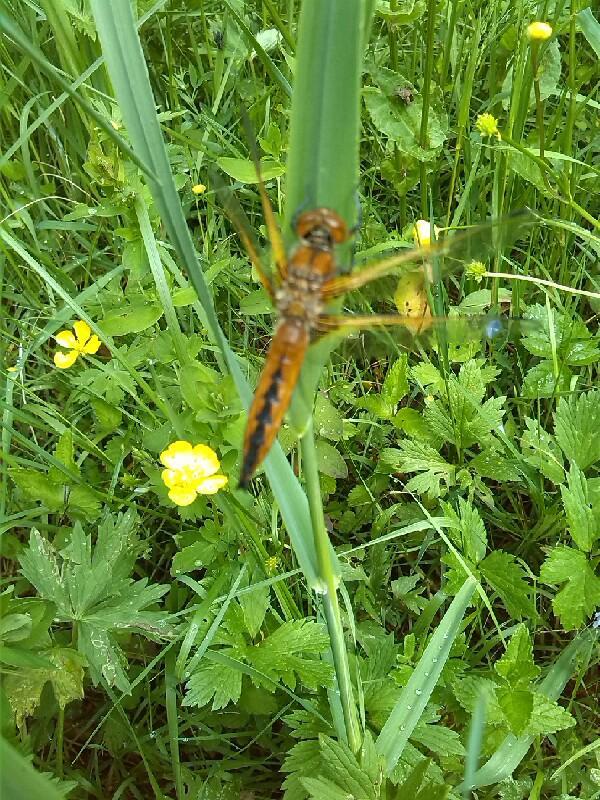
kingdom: Animalia
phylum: Arthropoda
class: Insecta
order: Odonata
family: Libellulidae
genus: Libellula
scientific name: Libellula fulva
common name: Blue chaser
